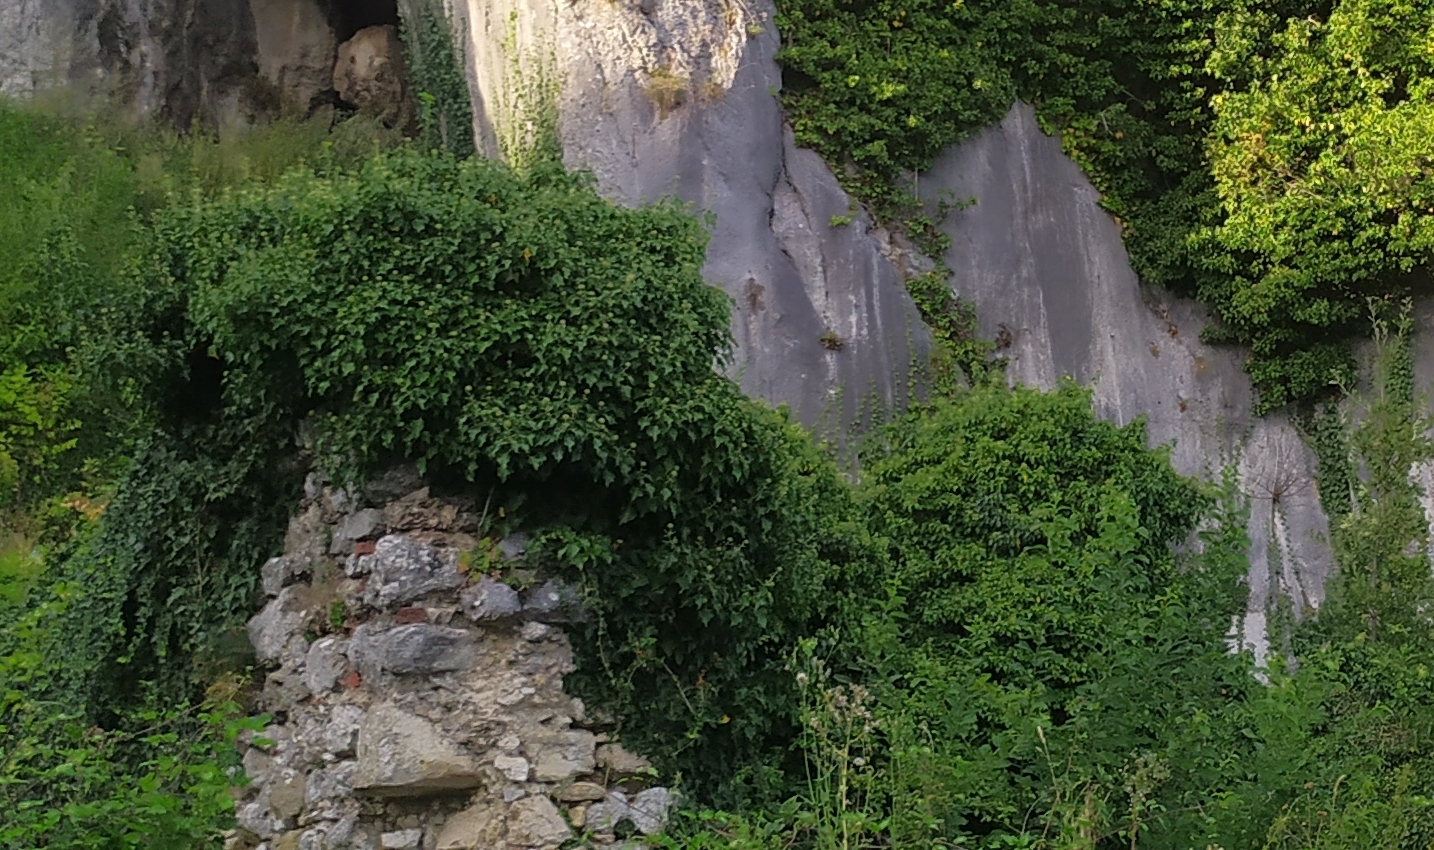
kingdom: Plantae
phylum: Tracheophyta
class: Magnoliopsida
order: Apiales
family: Araliaceae
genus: Hedera
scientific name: Hedera helix
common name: Ivy
